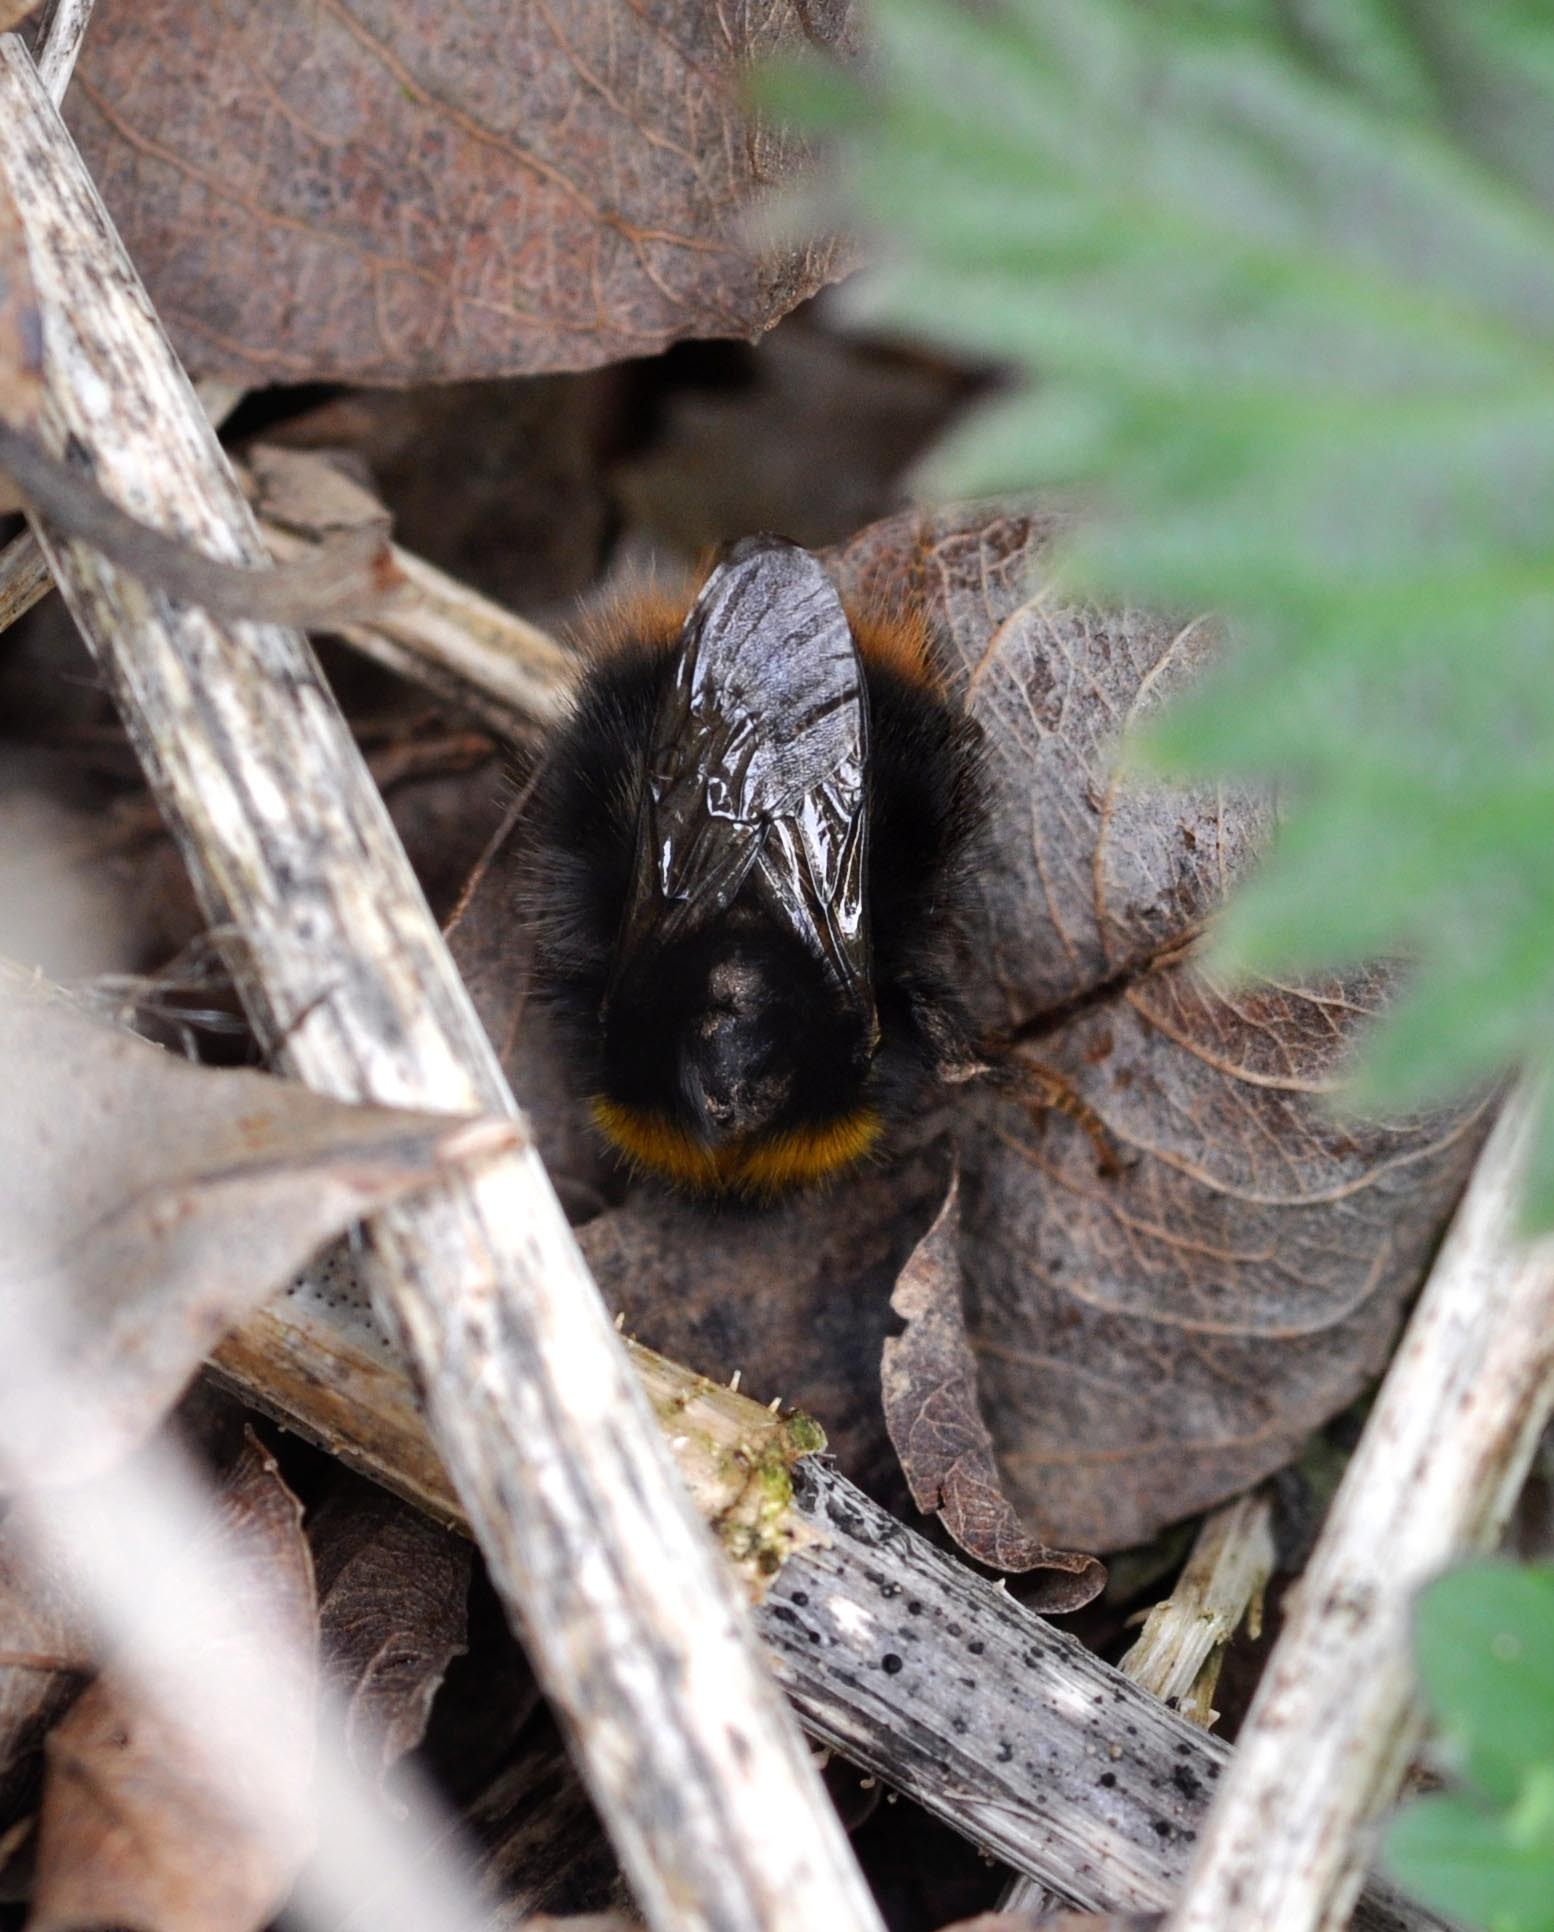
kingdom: Animalia
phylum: Arthropoda
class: Insecta
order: Hymenoptera
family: Apidae
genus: Bombus
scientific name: Bombus pratorum
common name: Early humble-bee
